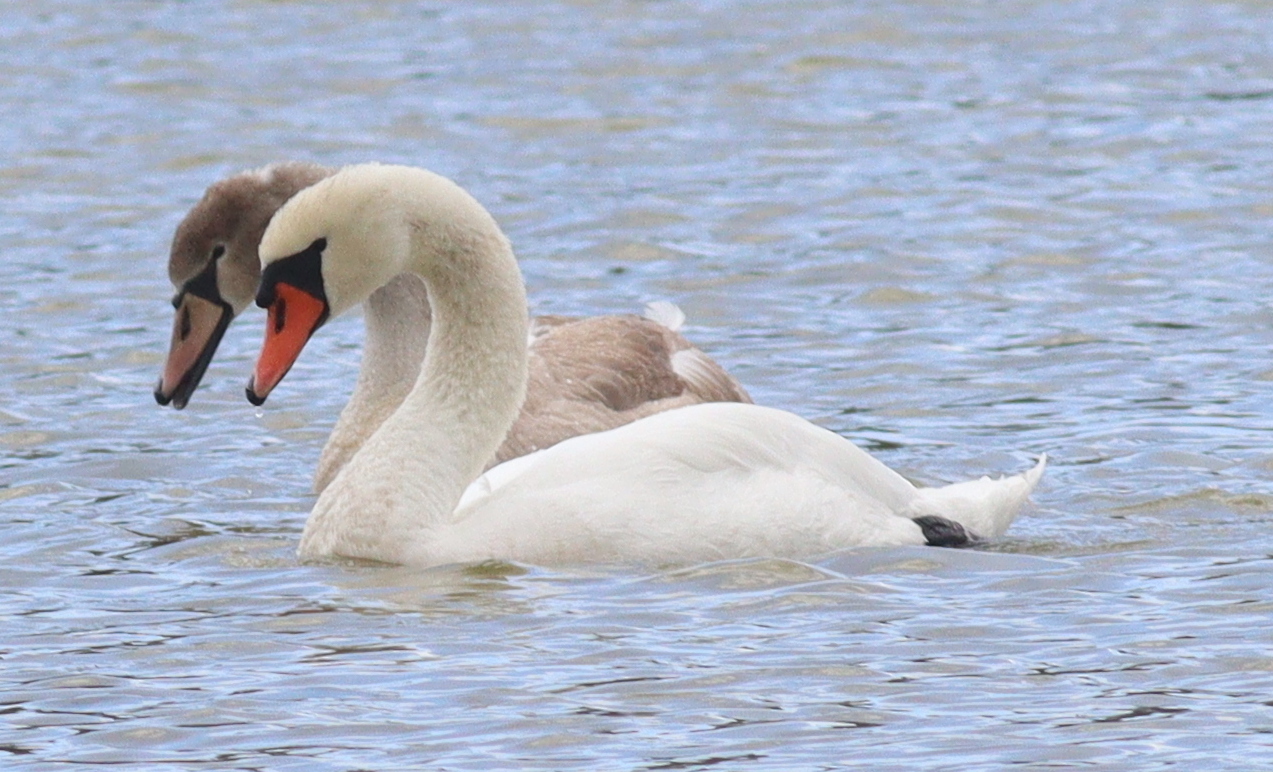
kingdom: Animalia
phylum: Chordata
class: Aves
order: Anseriformes
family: Anatidae
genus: Cygnus
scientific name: Cygnus olor
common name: Mute swan
